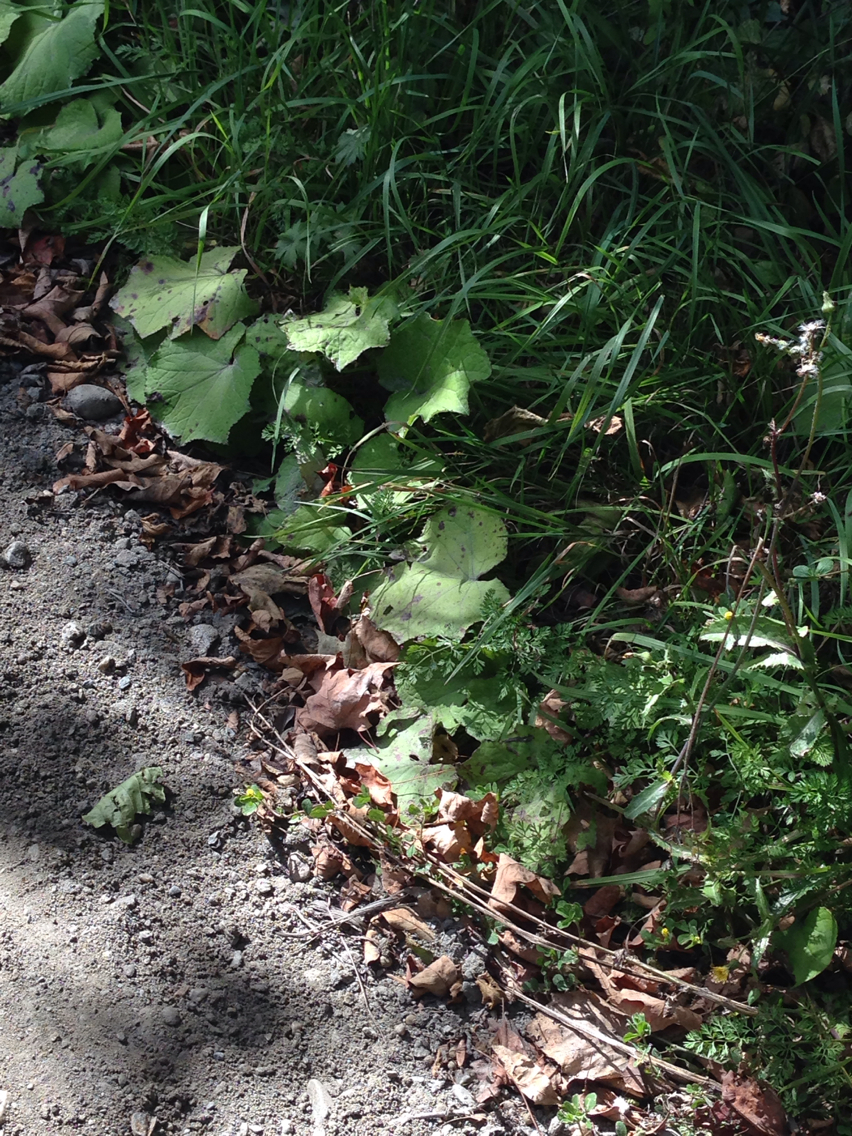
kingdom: Plantae
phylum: Tracheophyta
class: Magnoliopsida
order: Asterales
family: Asteraceae
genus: Tussilago
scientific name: Tussilago farfara
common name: Coltsfoot
